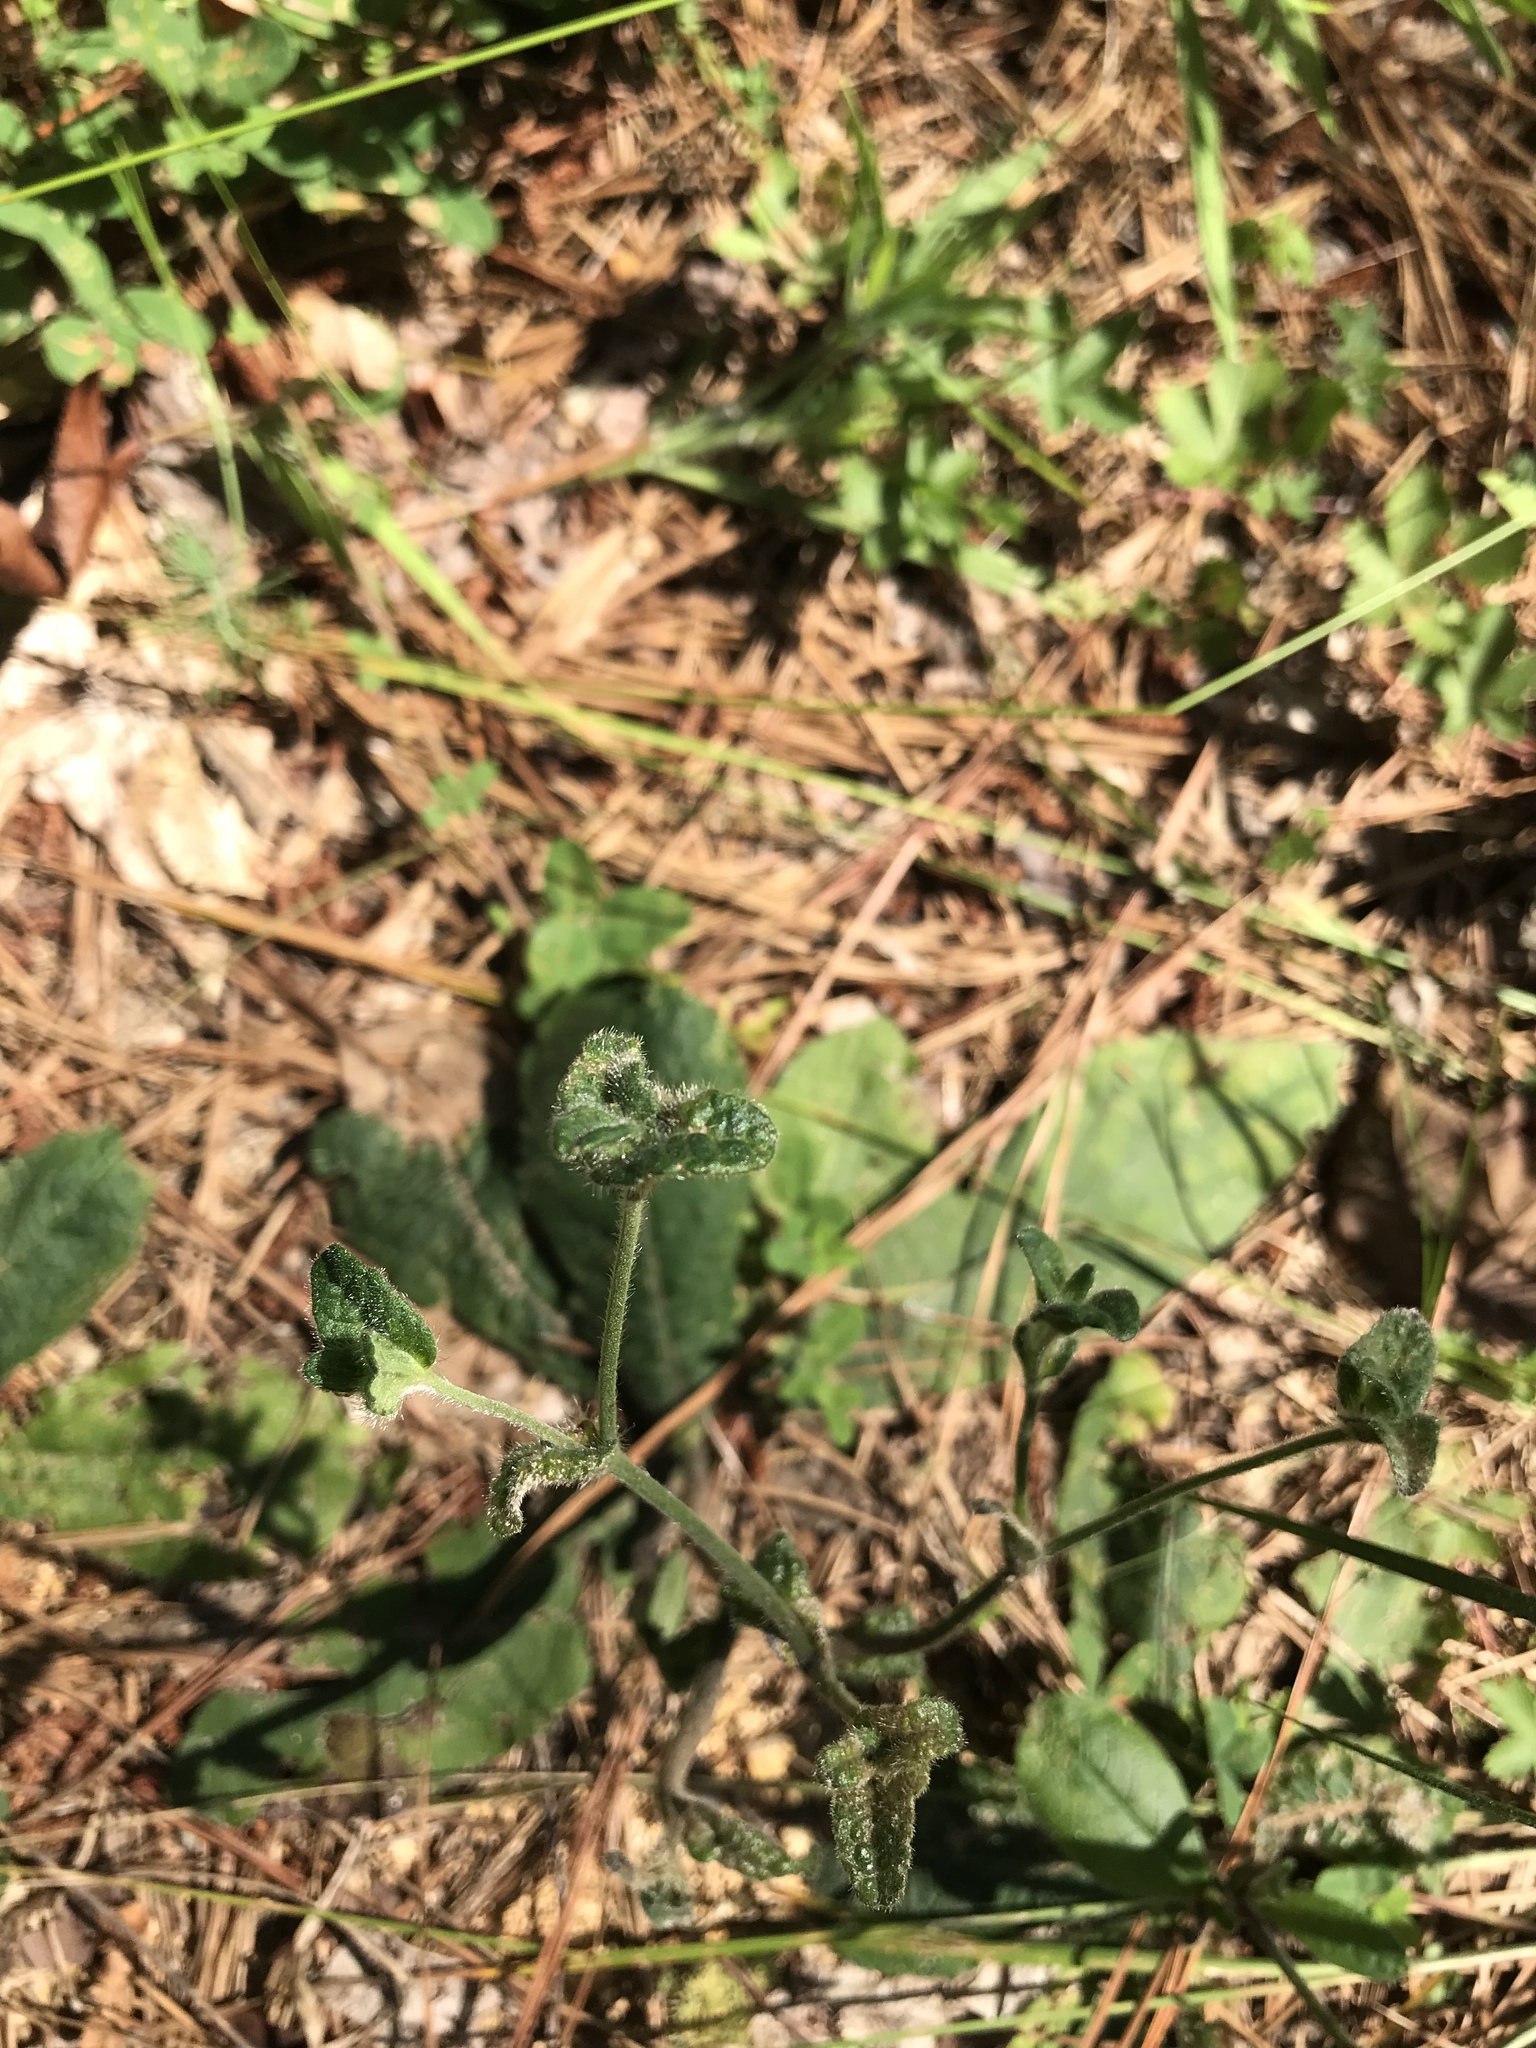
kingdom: Plantae
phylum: Tracheophyta
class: Magnoliopsida
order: Asterales
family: Asteraceae
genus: Elephantopus
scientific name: Elephantopus tomentosus
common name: Tobacco-weed
